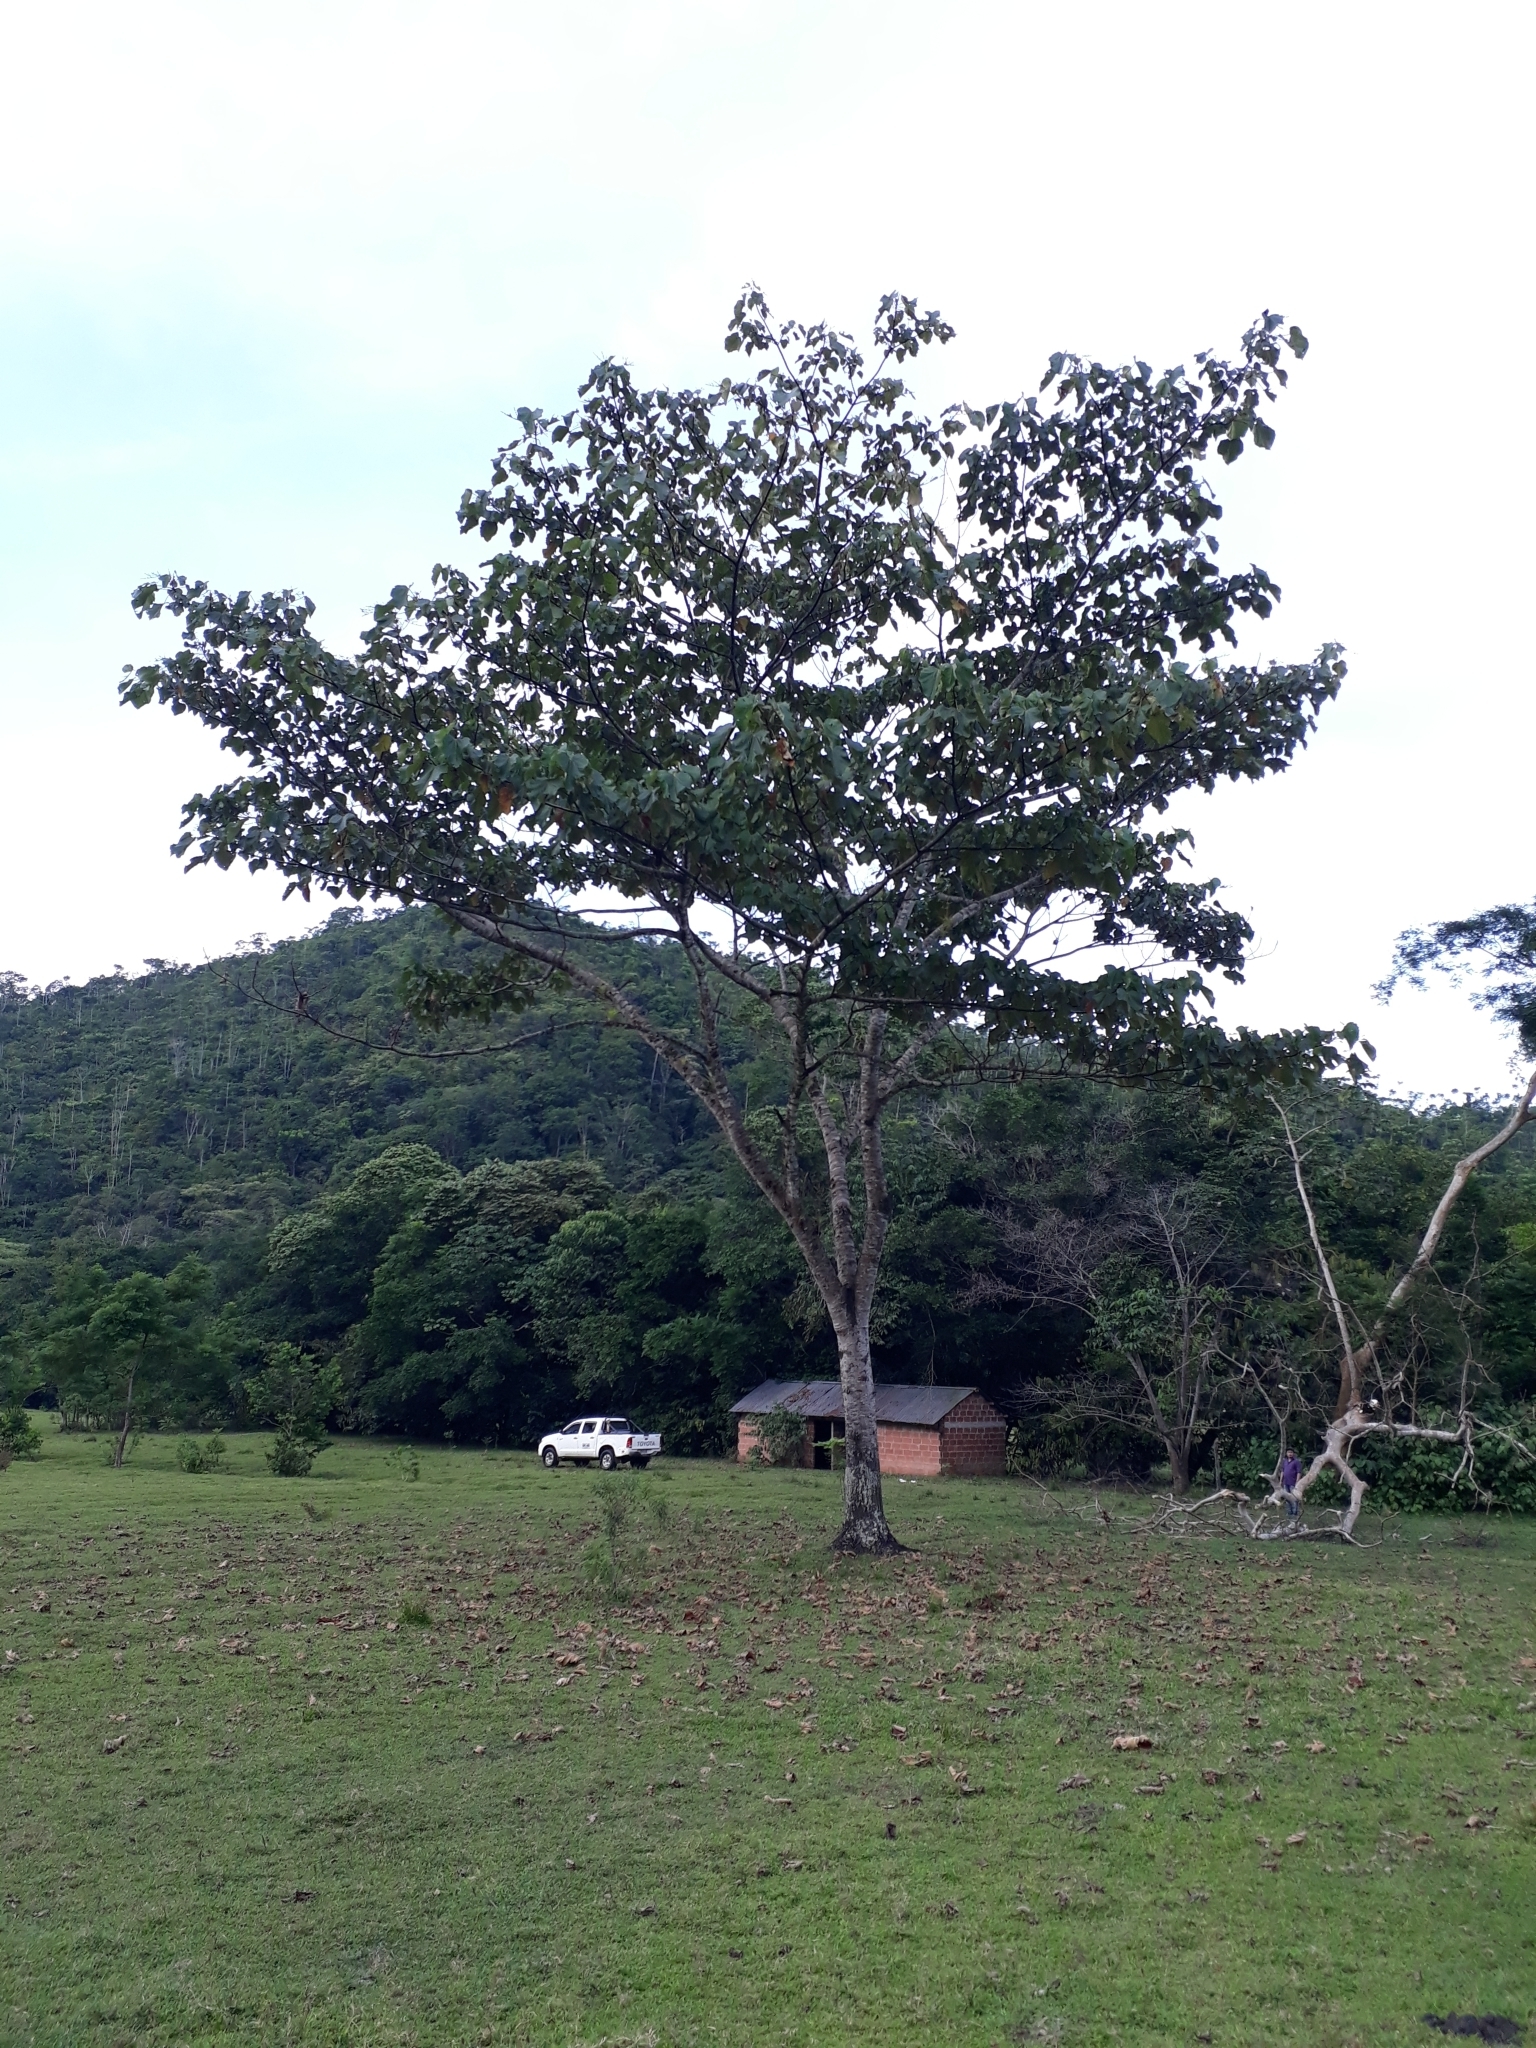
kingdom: Plantae
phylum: Tracheophyta
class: Magnoliopsida
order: Malvales
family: Malvaceae
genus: Ochroma
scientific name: Ochroma pyramidale
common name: Balsa
